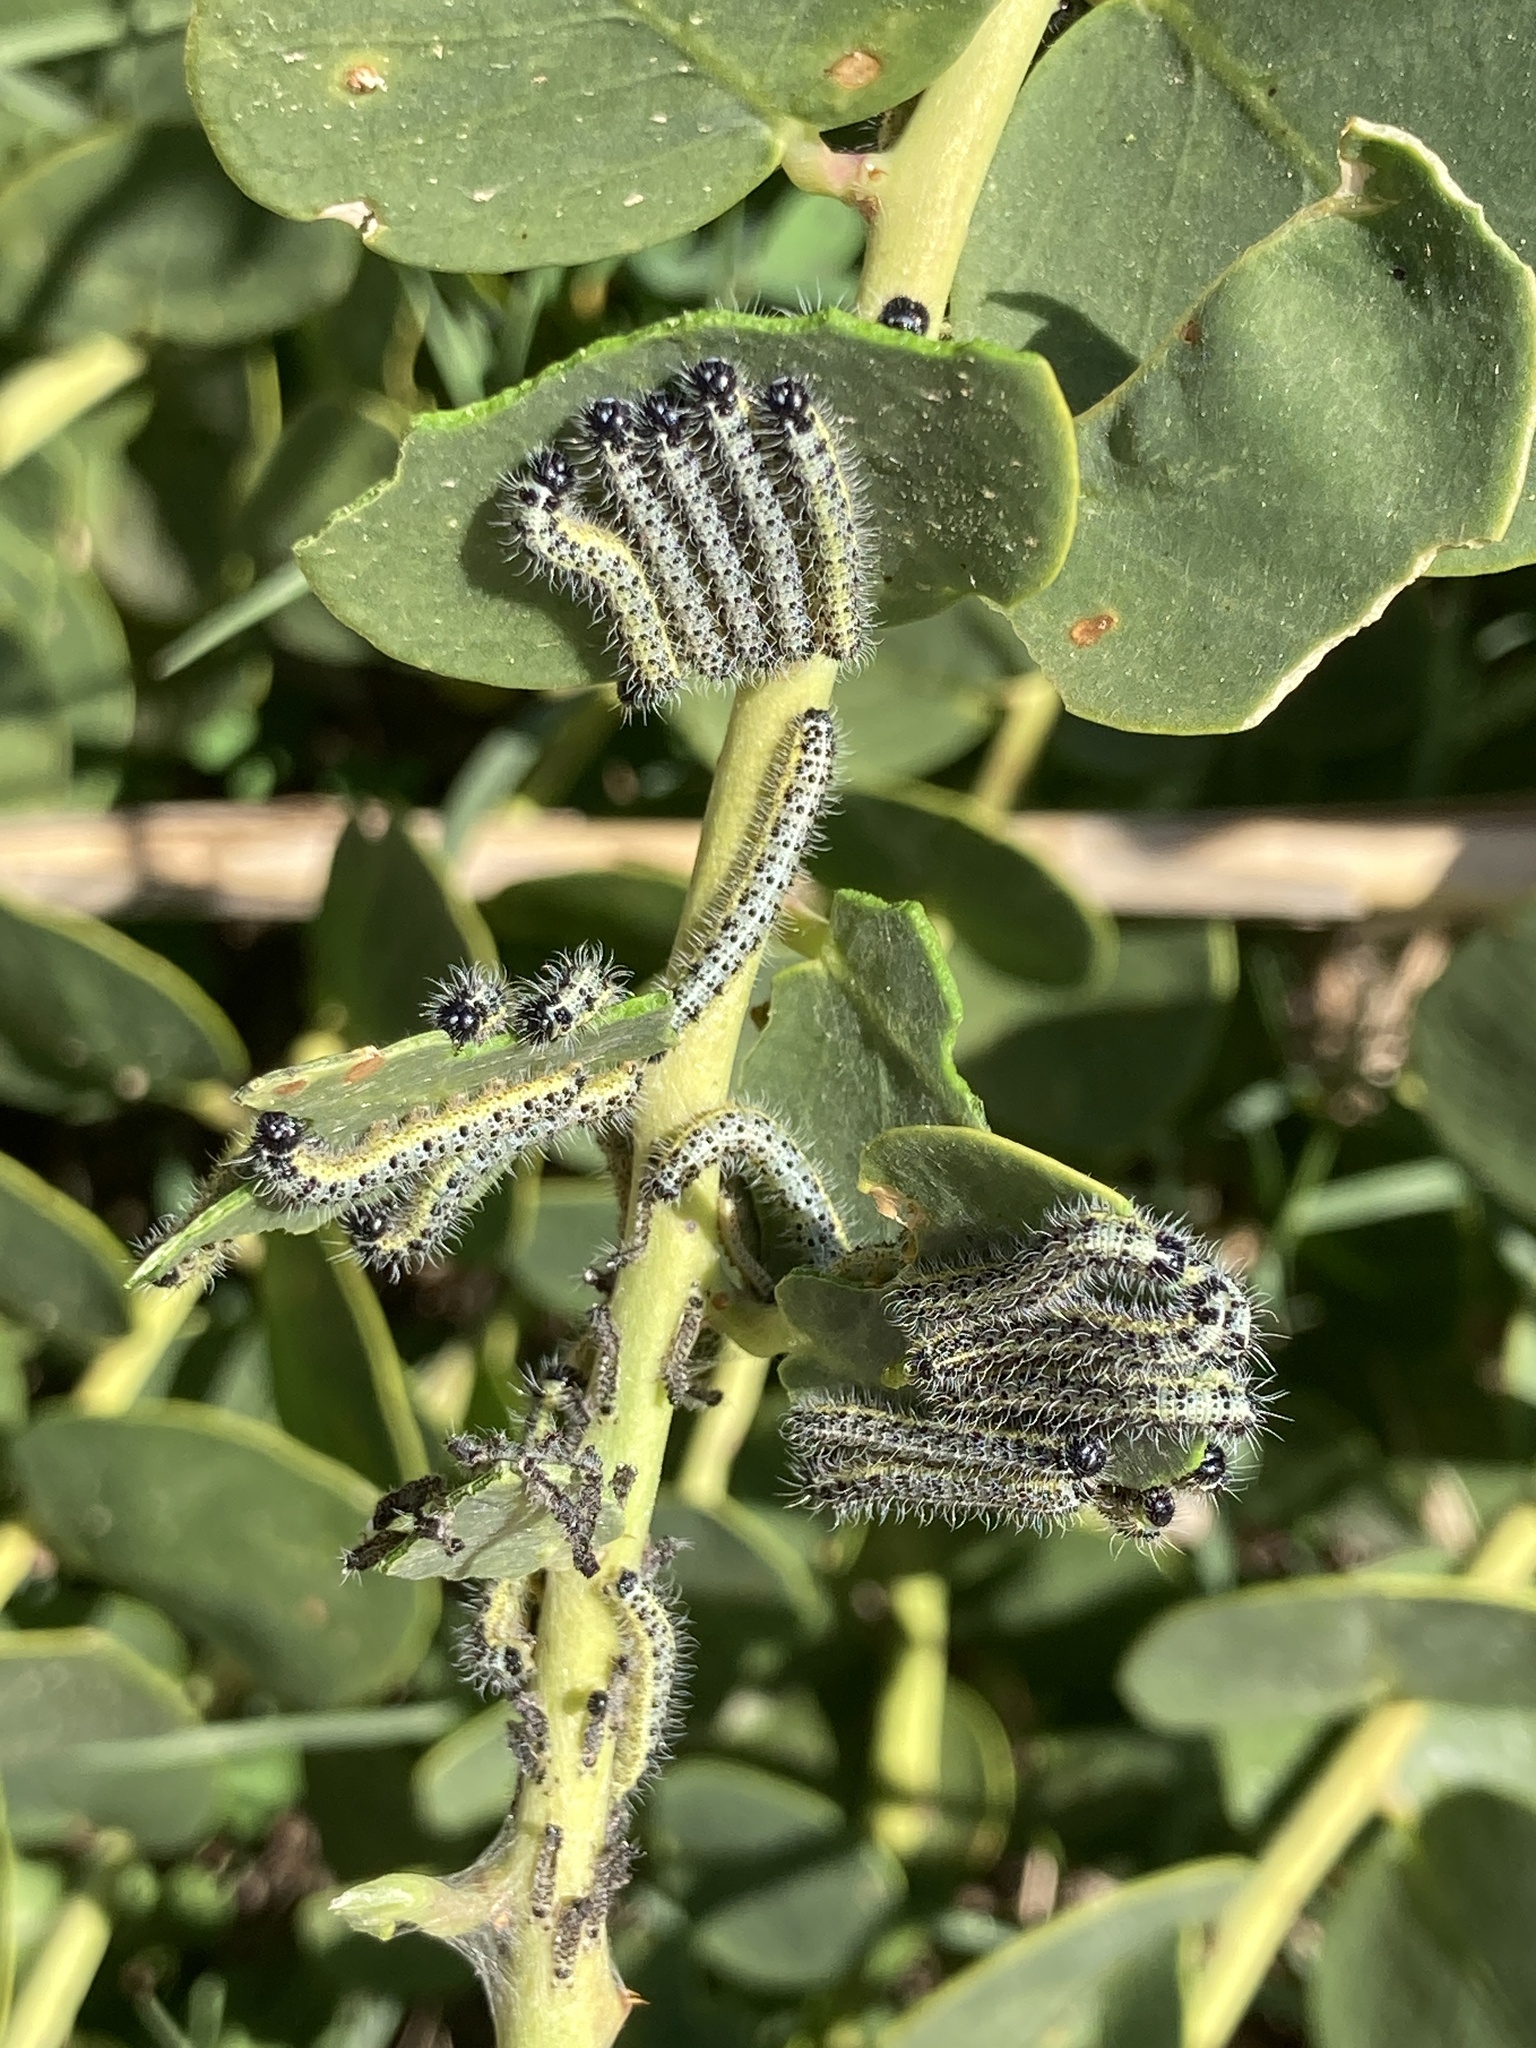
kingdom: Animalia
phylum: Arthropoda
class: Insecta
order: Lepidoptera
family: Pieridae
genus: Pieris
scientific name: Pieris brassicae
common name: Large white
